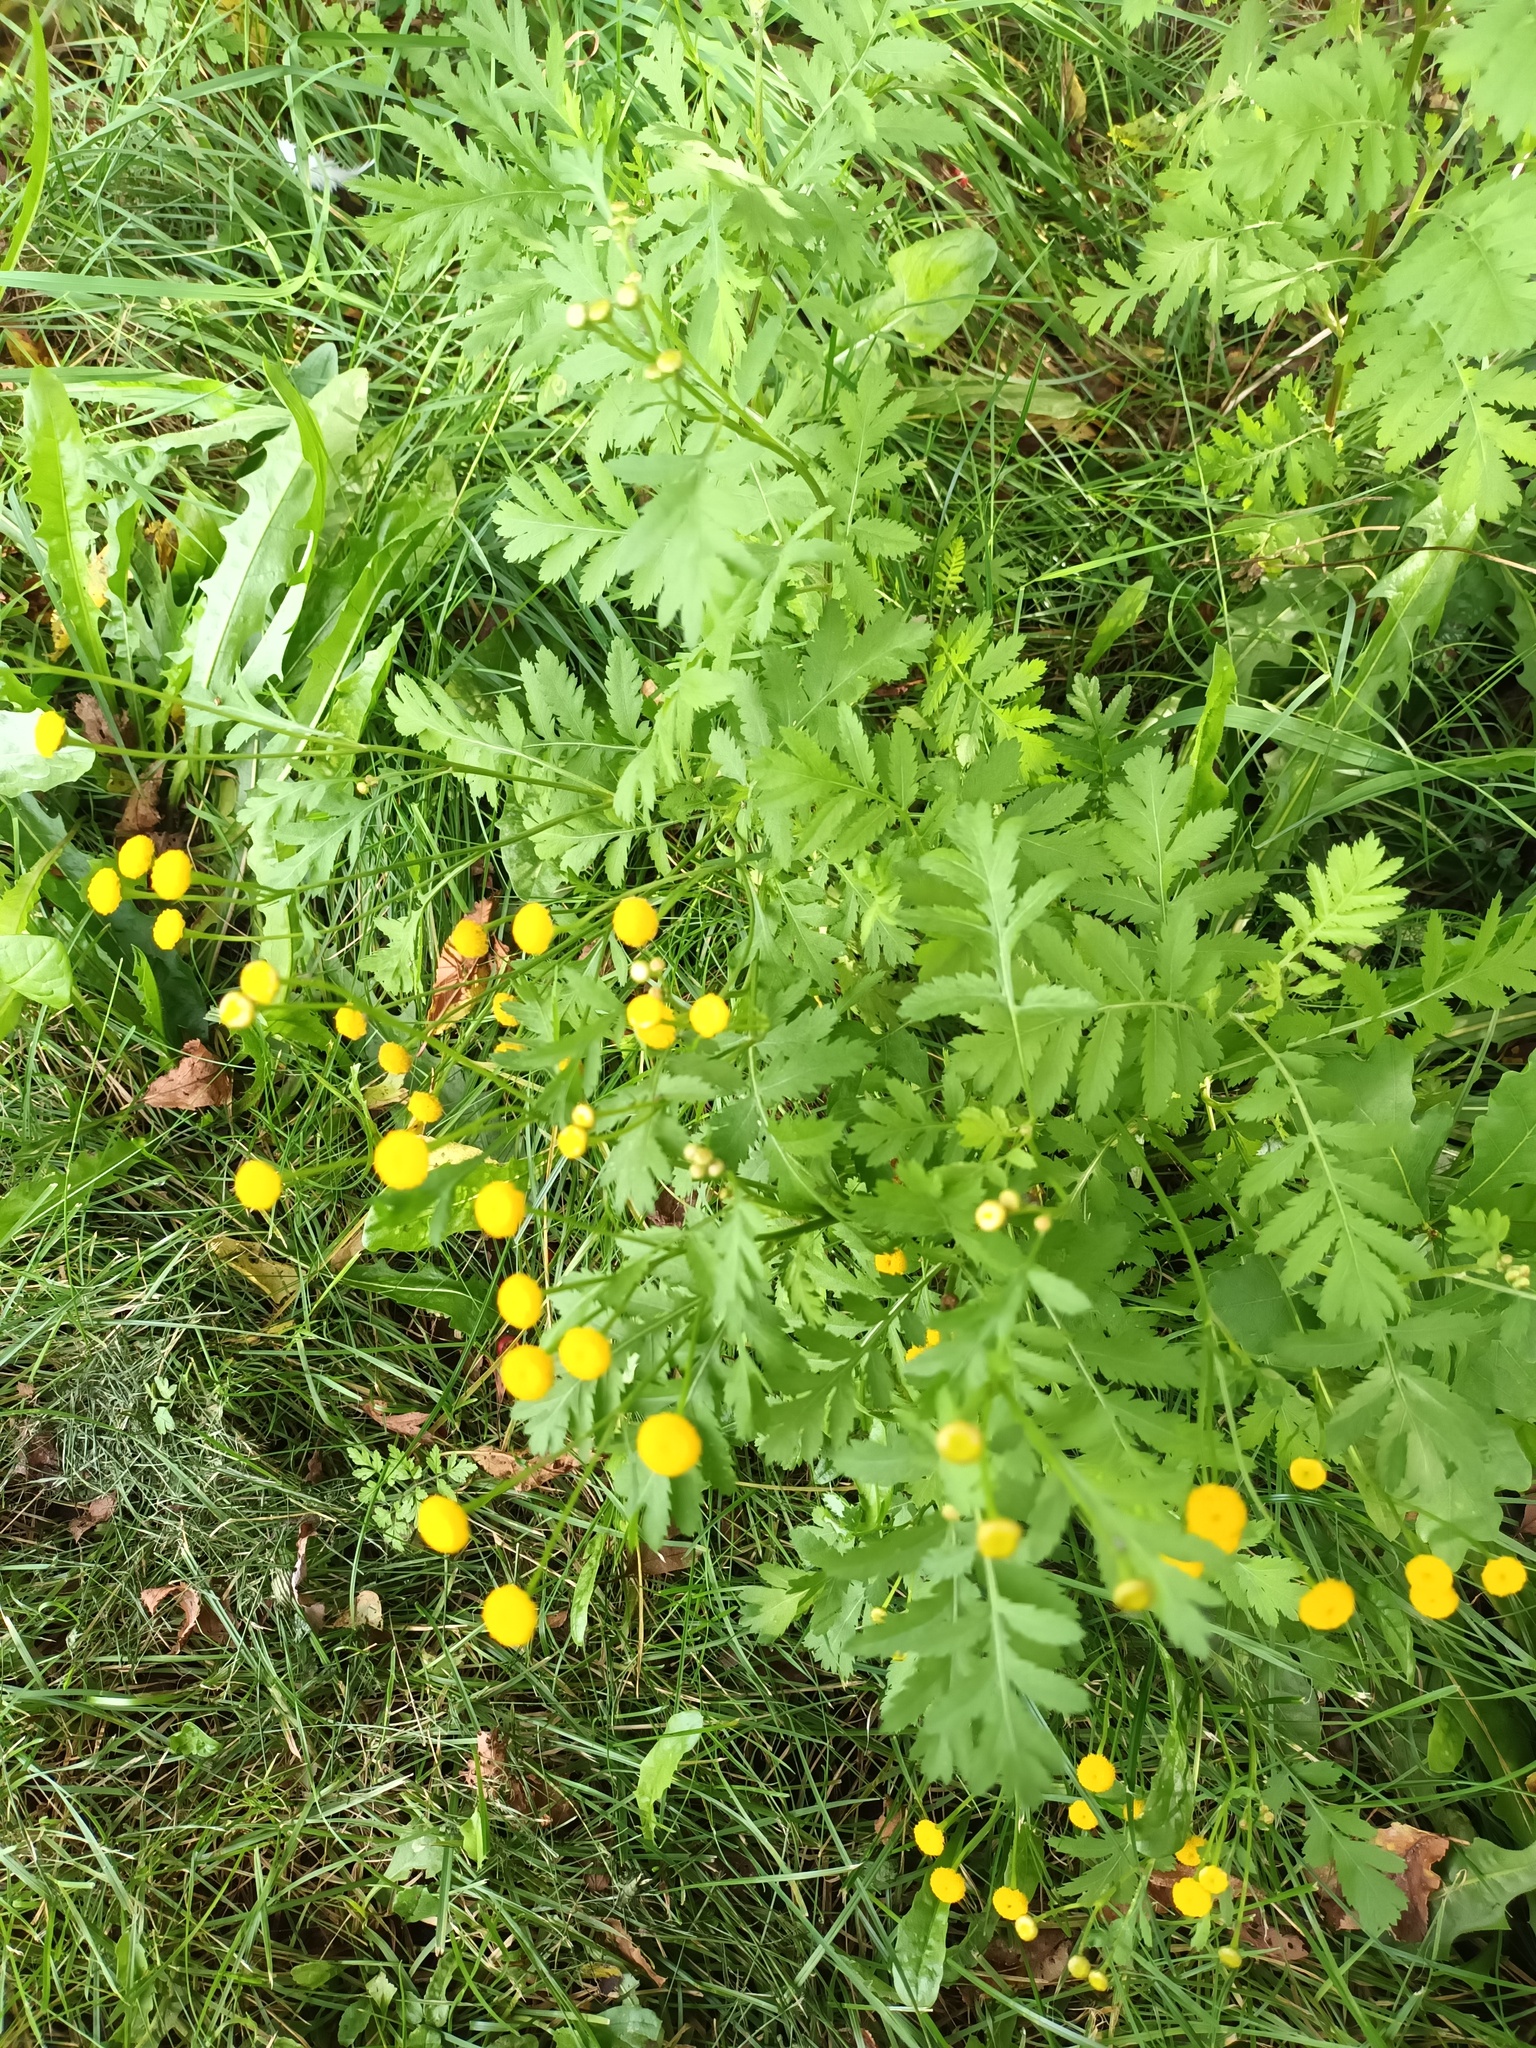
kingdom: Plantae
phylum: Tracheophyta
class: Magnoliopsida
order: Asterales
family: Asteraceae
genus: Tanacetum
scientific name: Tanacetum vulgare
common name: Common tansy
